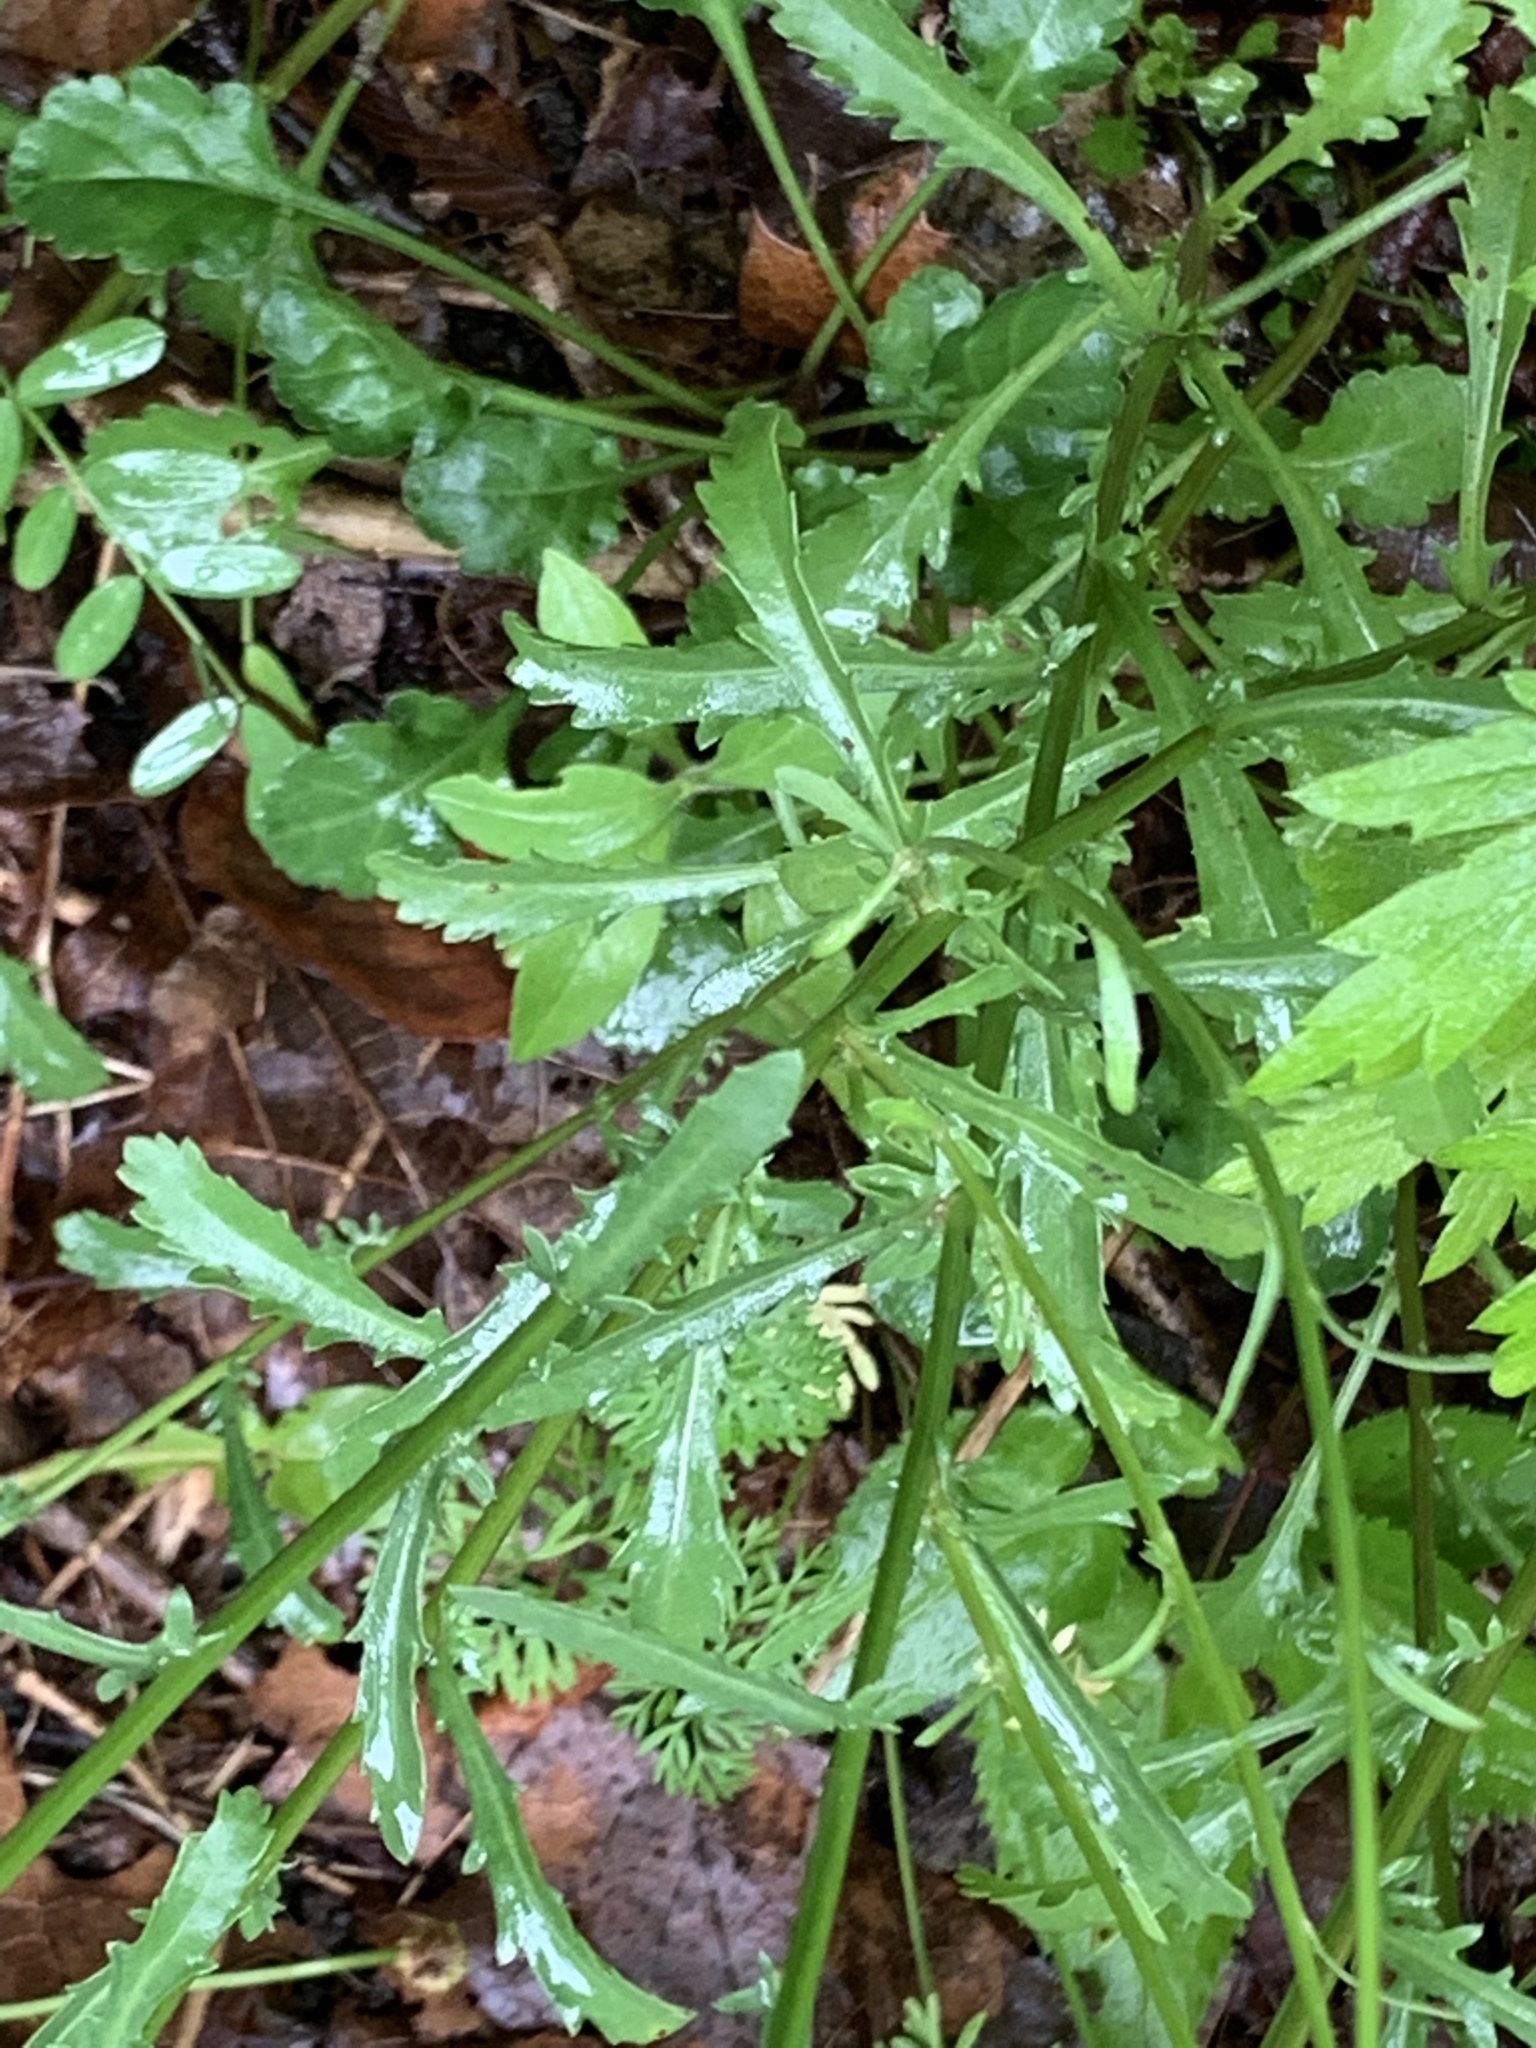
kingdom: Plantae
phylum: Tracheophyta
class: Magnoliopsida
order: Asterales
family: Asteraceae
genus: Leucanthemum
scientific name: Leucanthemum vulgare
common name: Oxeye daisy
